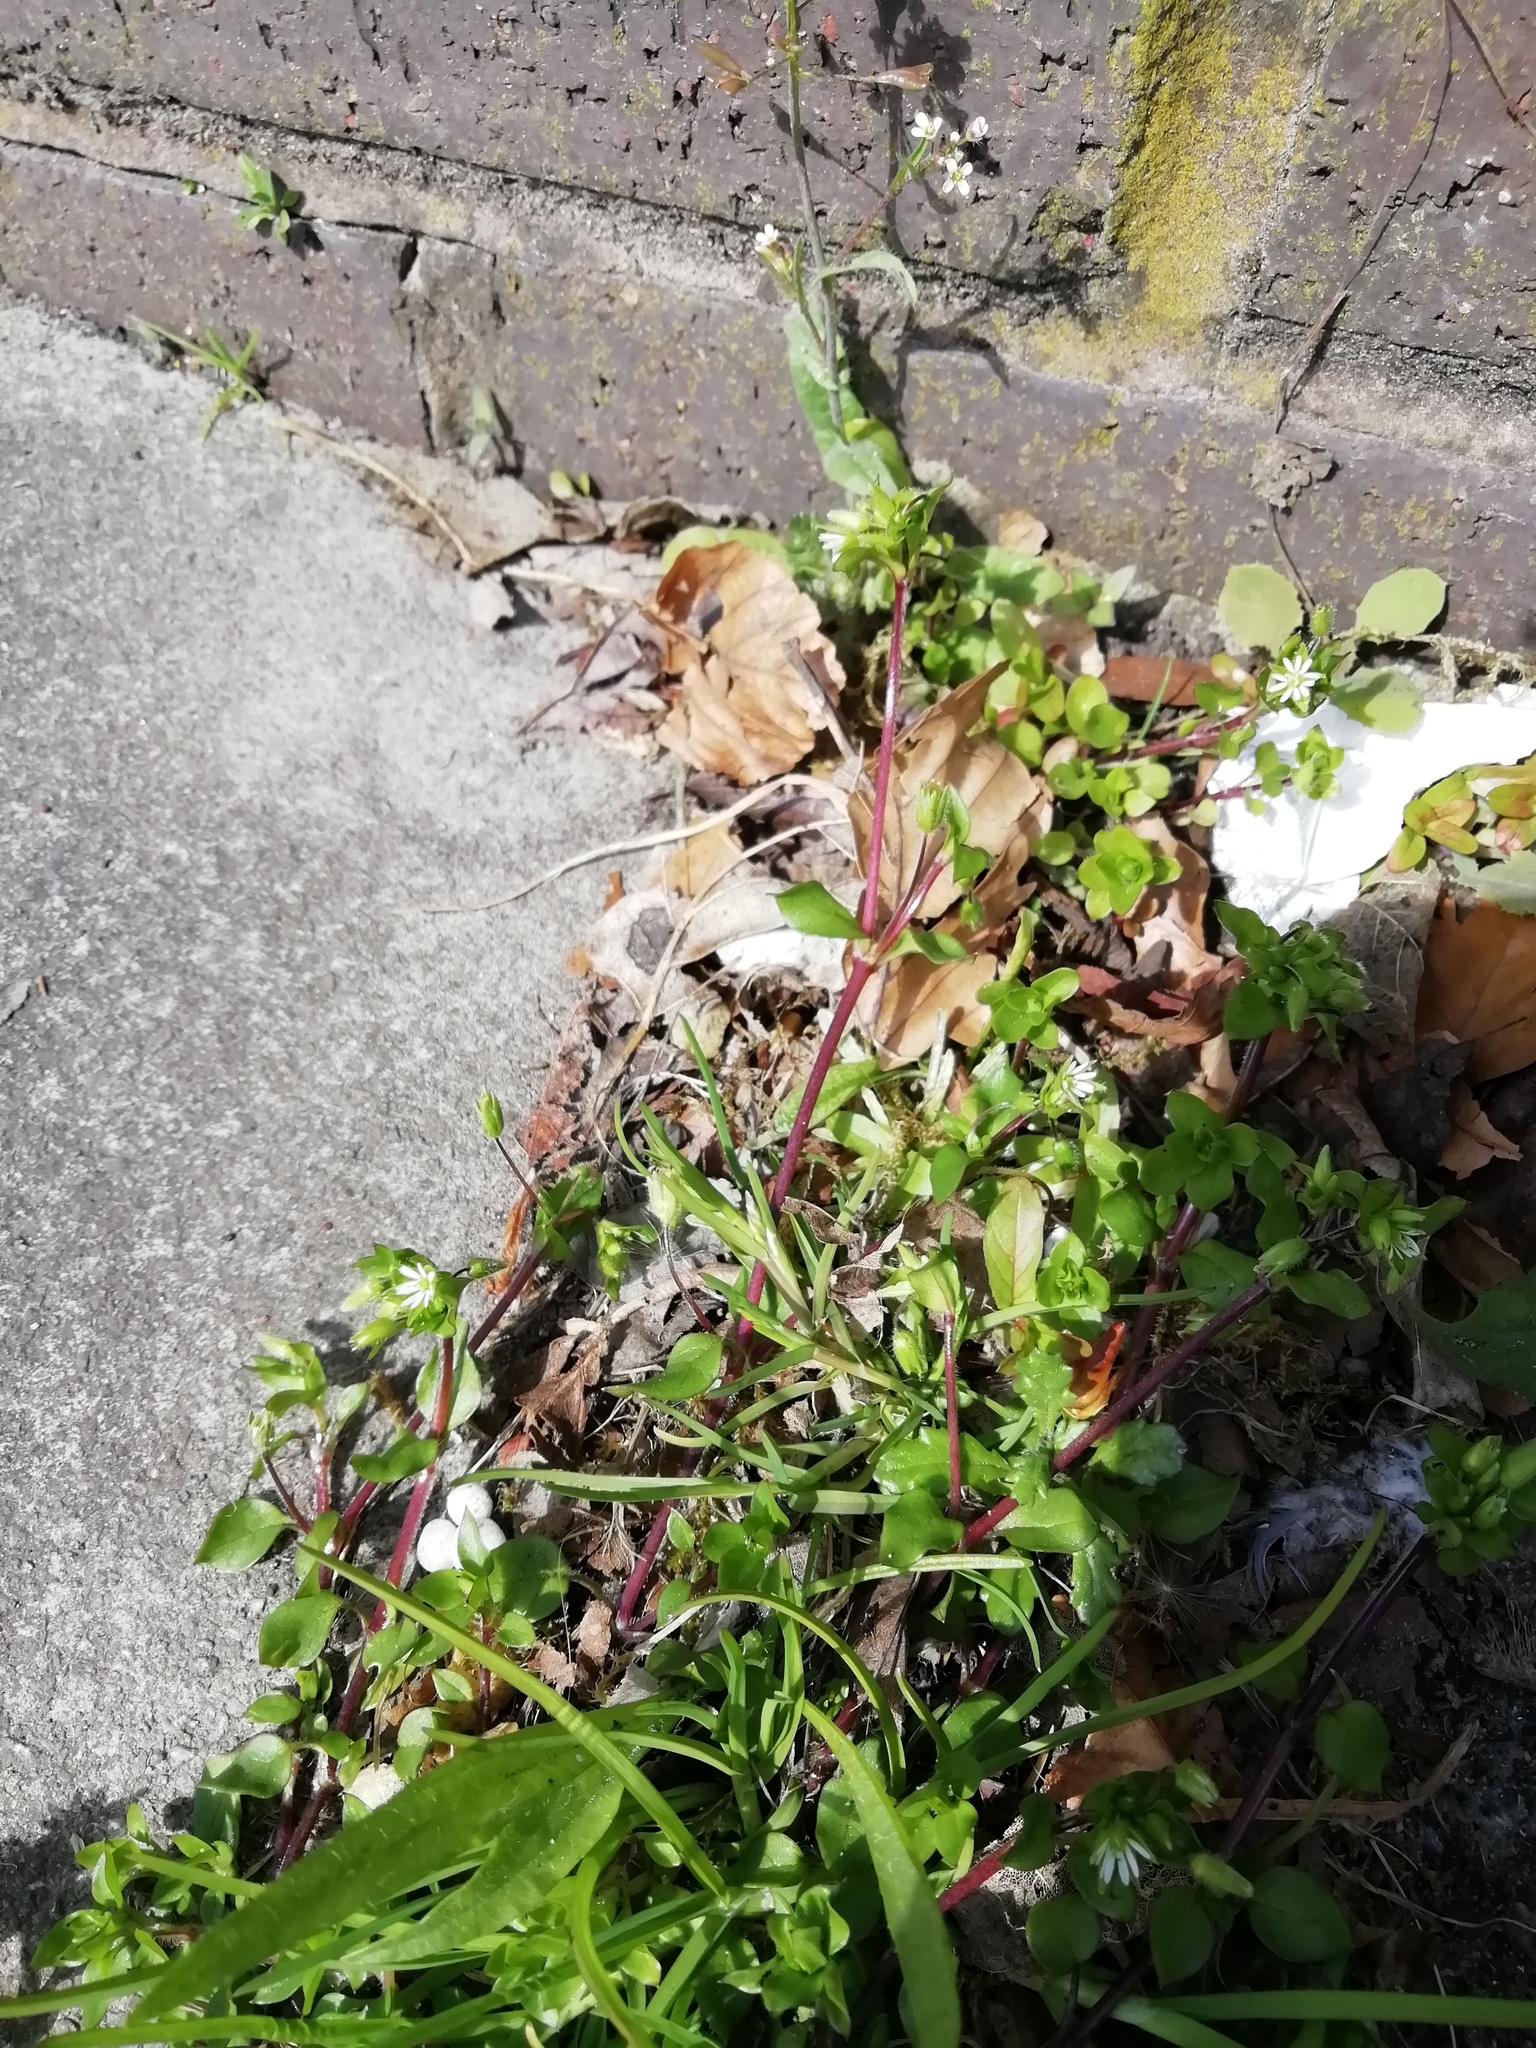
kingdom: Plantae
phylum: Tracheophyta
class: Magnoliopsida
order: Caryophyllales
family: Caryophyllaceae
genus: Stellaria
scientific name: Stellaria media
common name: Common chickweed
